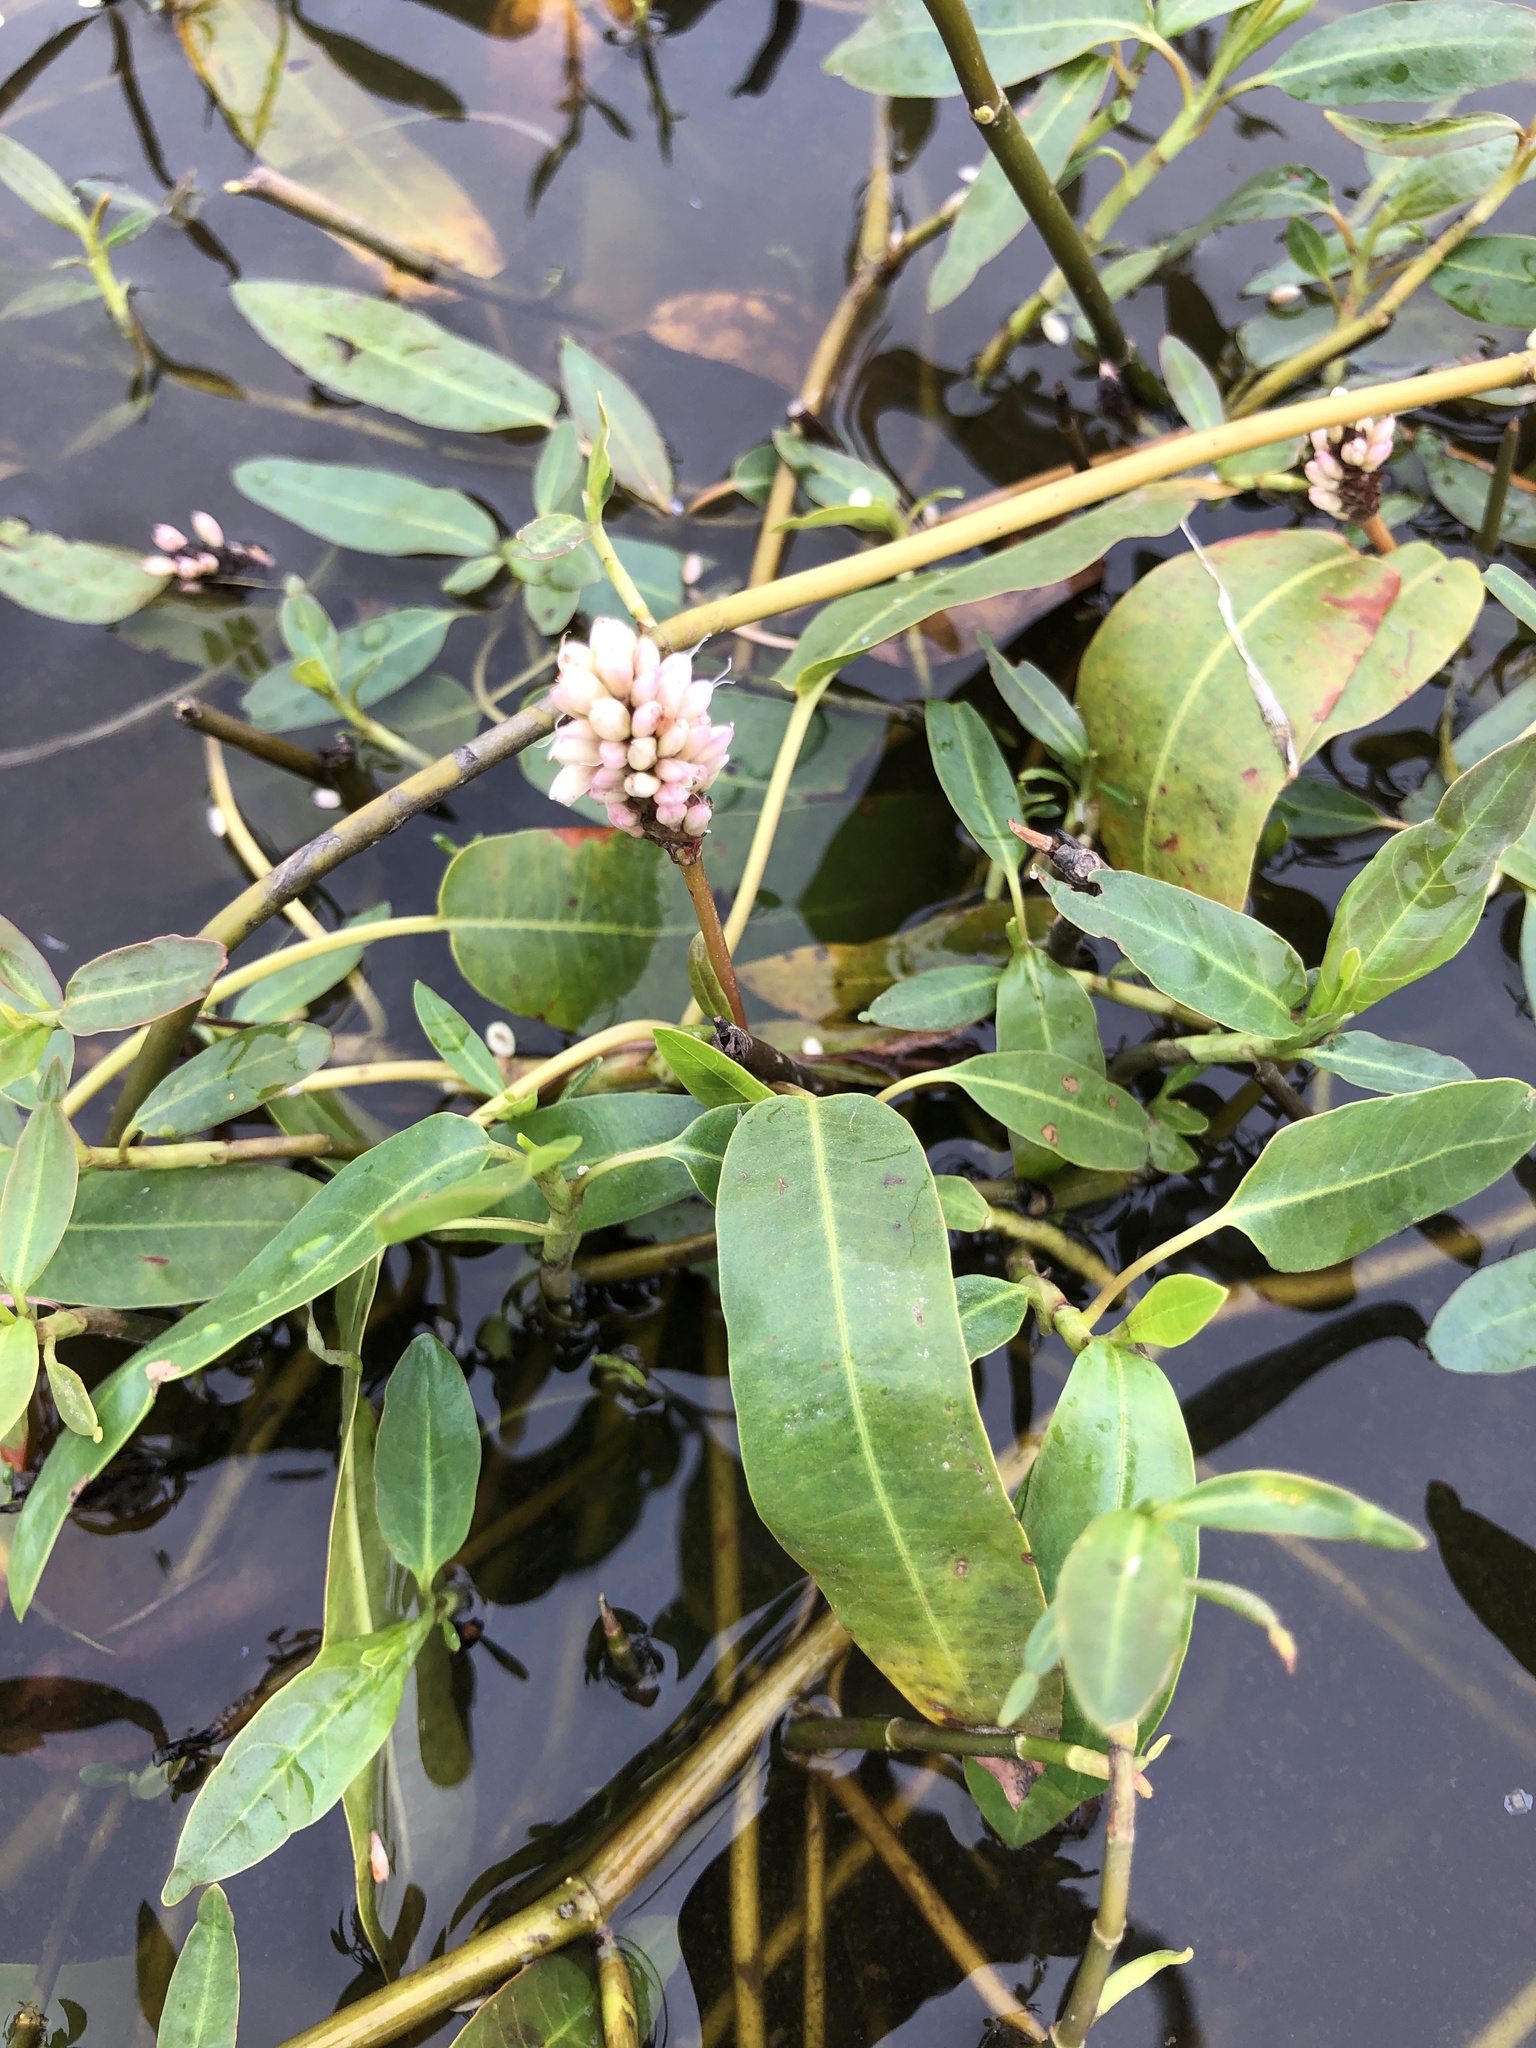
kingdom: Plantae
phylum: Tracheophyta
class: Magnoliopsida
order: Caryophyllales
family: Polygonaceae
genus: Persicaria
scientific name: Persicaria amphibia
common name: Amphibious bistort
